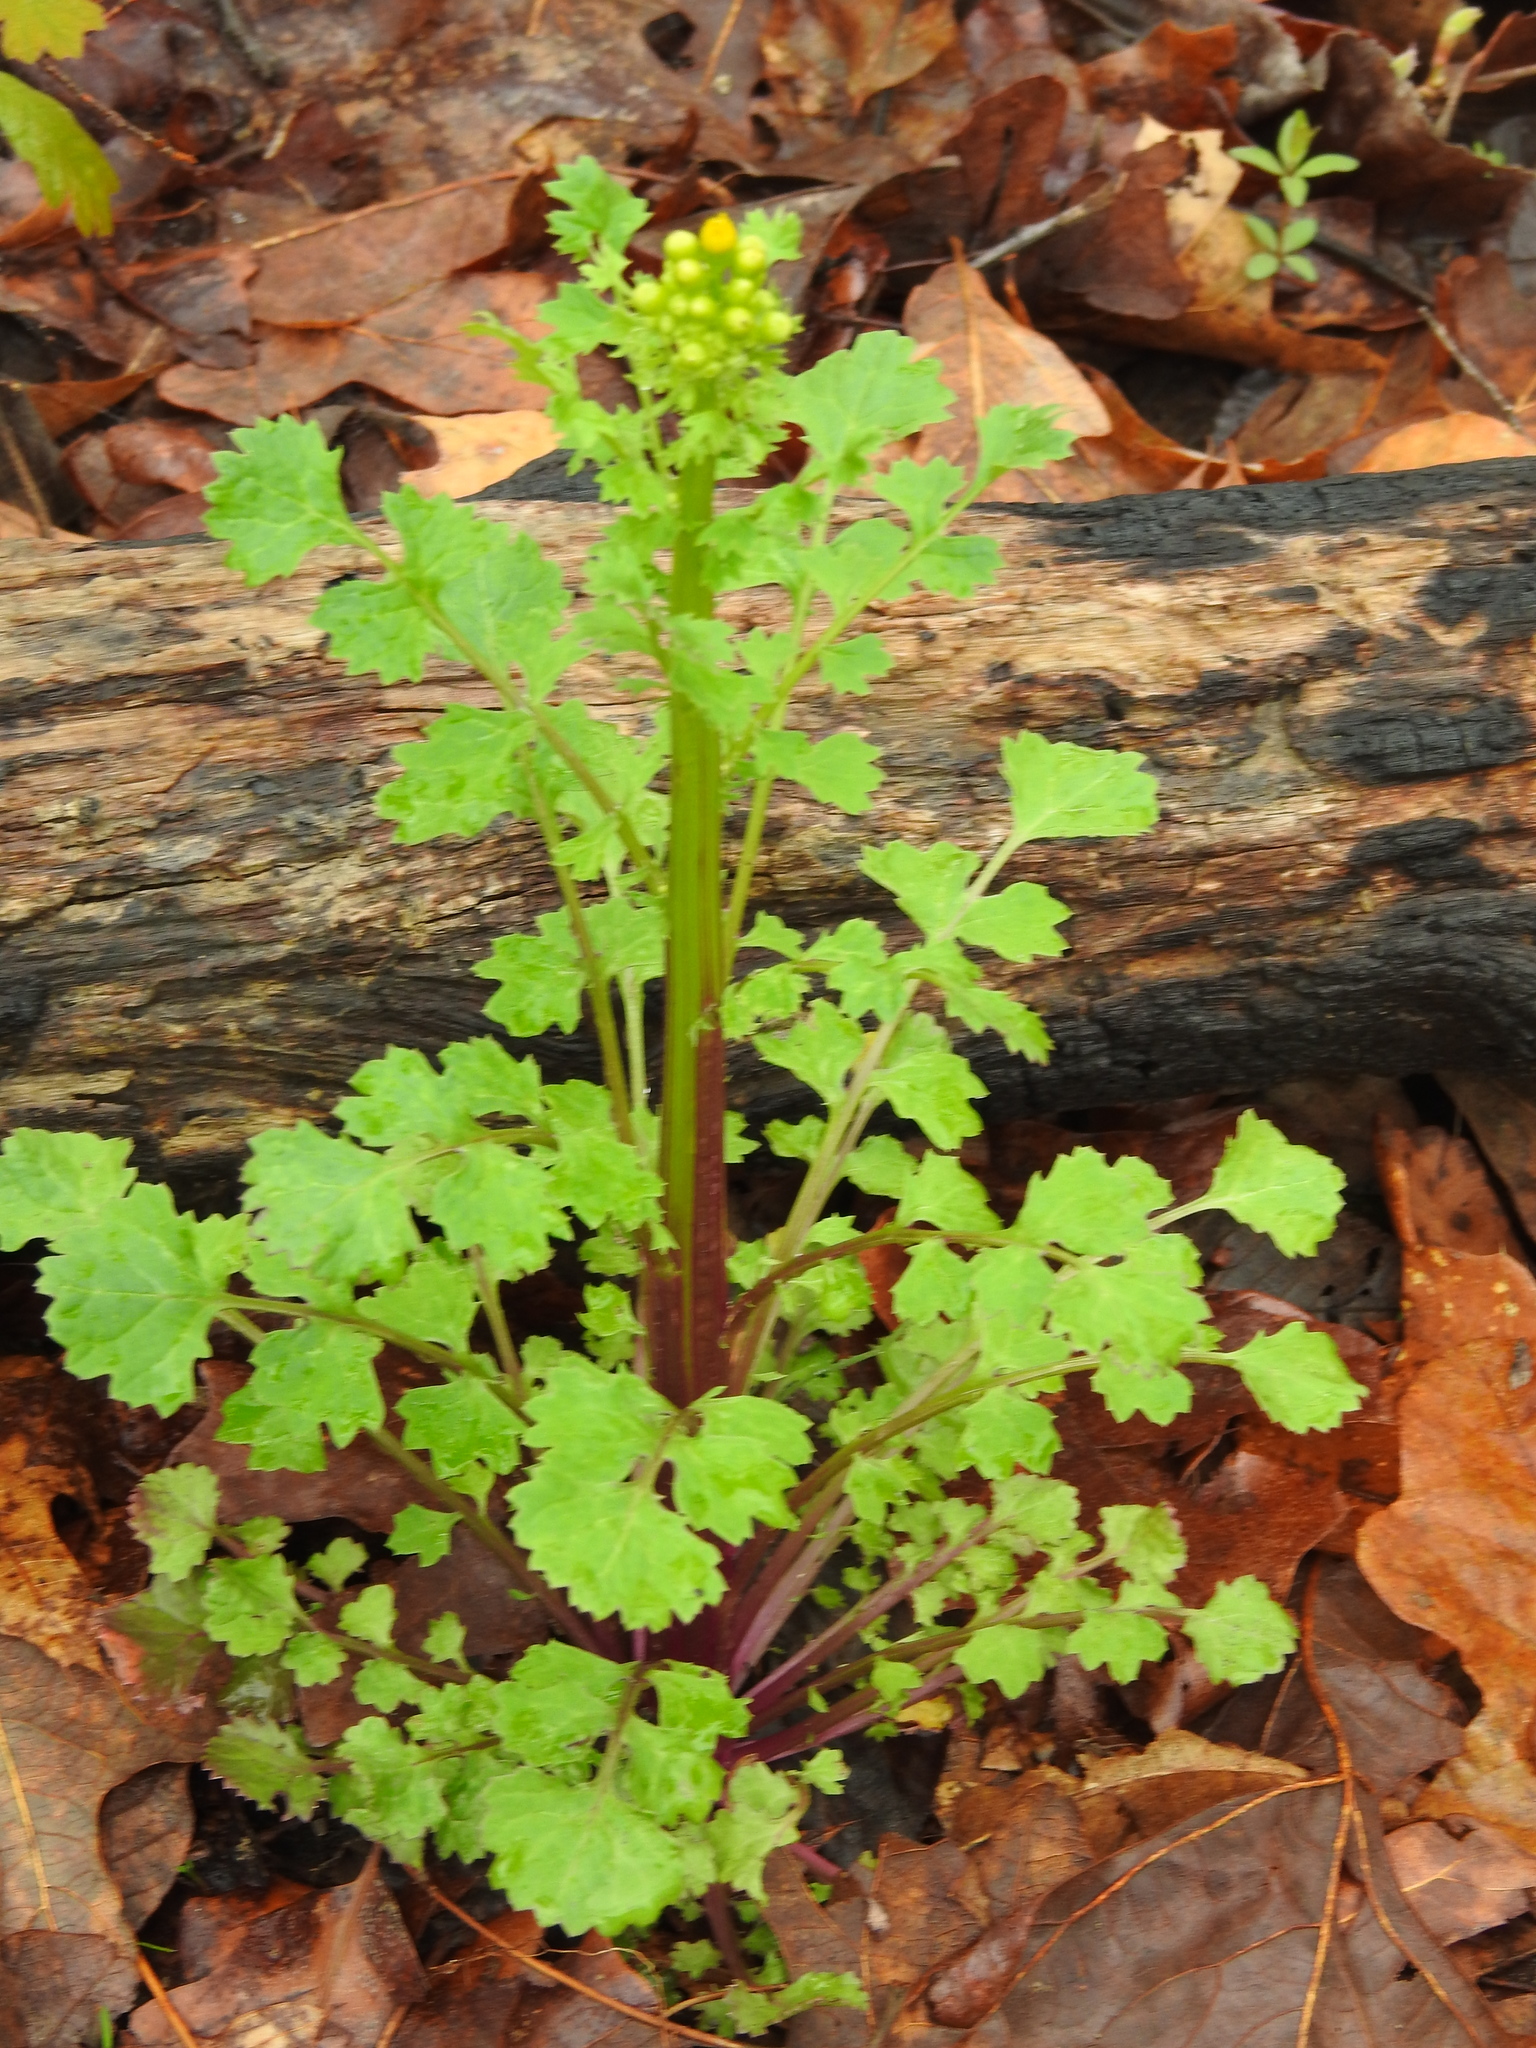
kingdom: Plantae
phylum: Tracheophyta
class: Magnoliopsida
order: Asterales
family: Asteraceae
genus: Packera
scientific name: Packera glabella
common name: Butterweed
